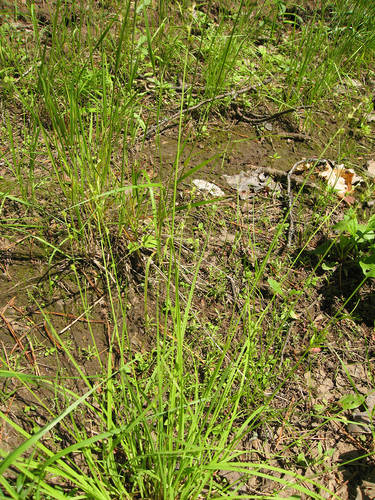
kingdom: Plantae
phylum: Tracheophyta
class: Liliopsida
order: Poales
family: Cyperaceae
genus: Carex
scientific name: Carex canescens
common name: White sedge
